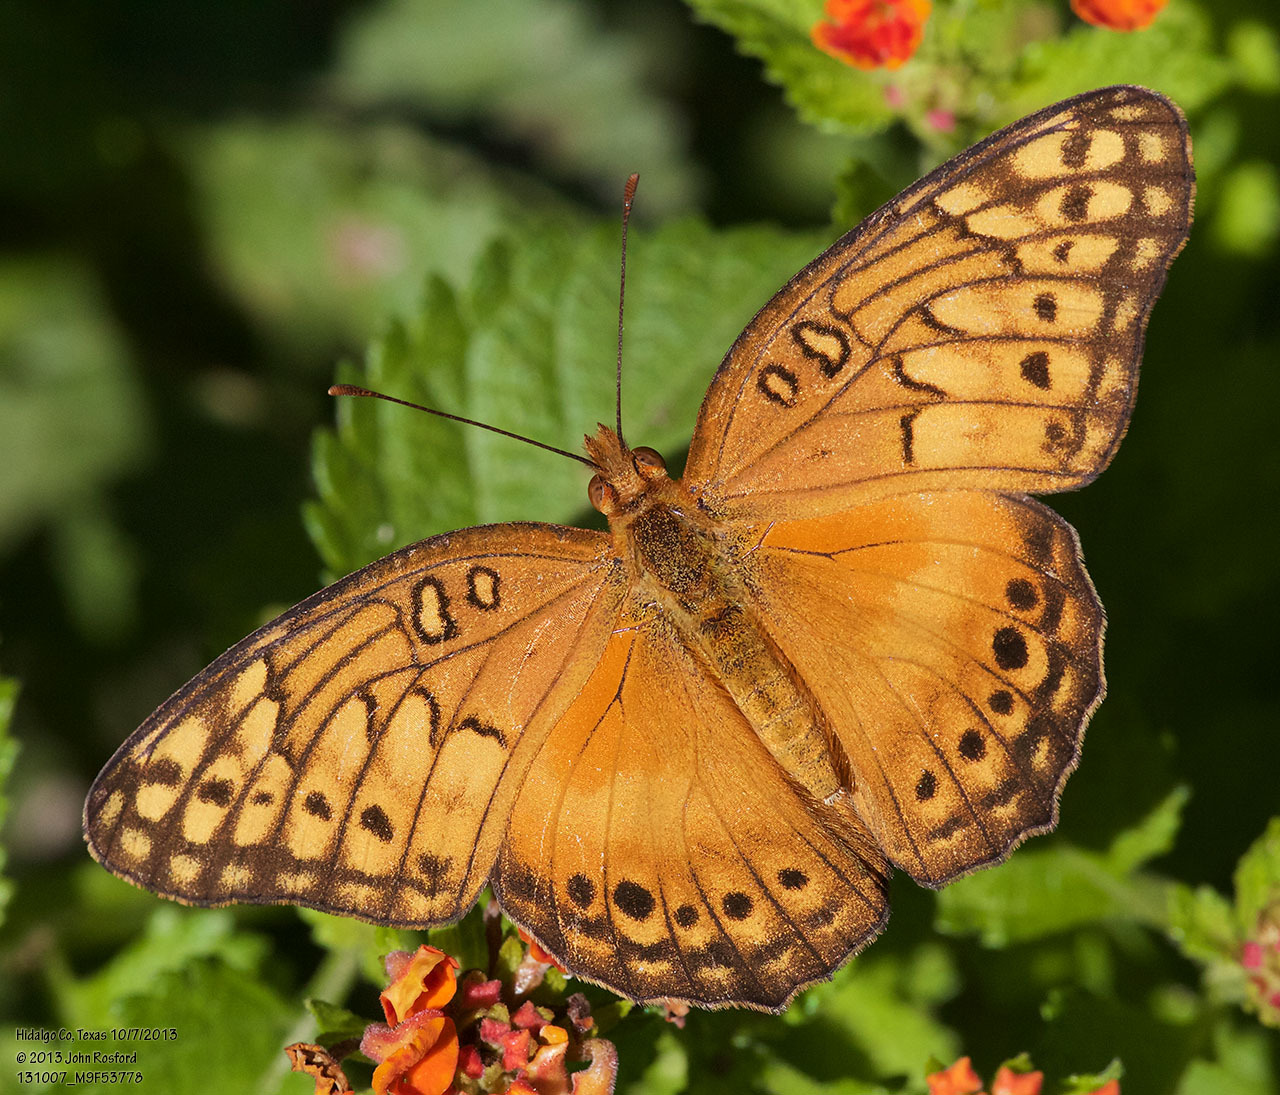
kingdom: Animalia
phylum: Arthropoda
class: Insecta
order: Lepidoptera
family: Nymphalidae
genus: Euptoieta
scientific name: Euptoieta hegesia
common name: Mexican fritillary
